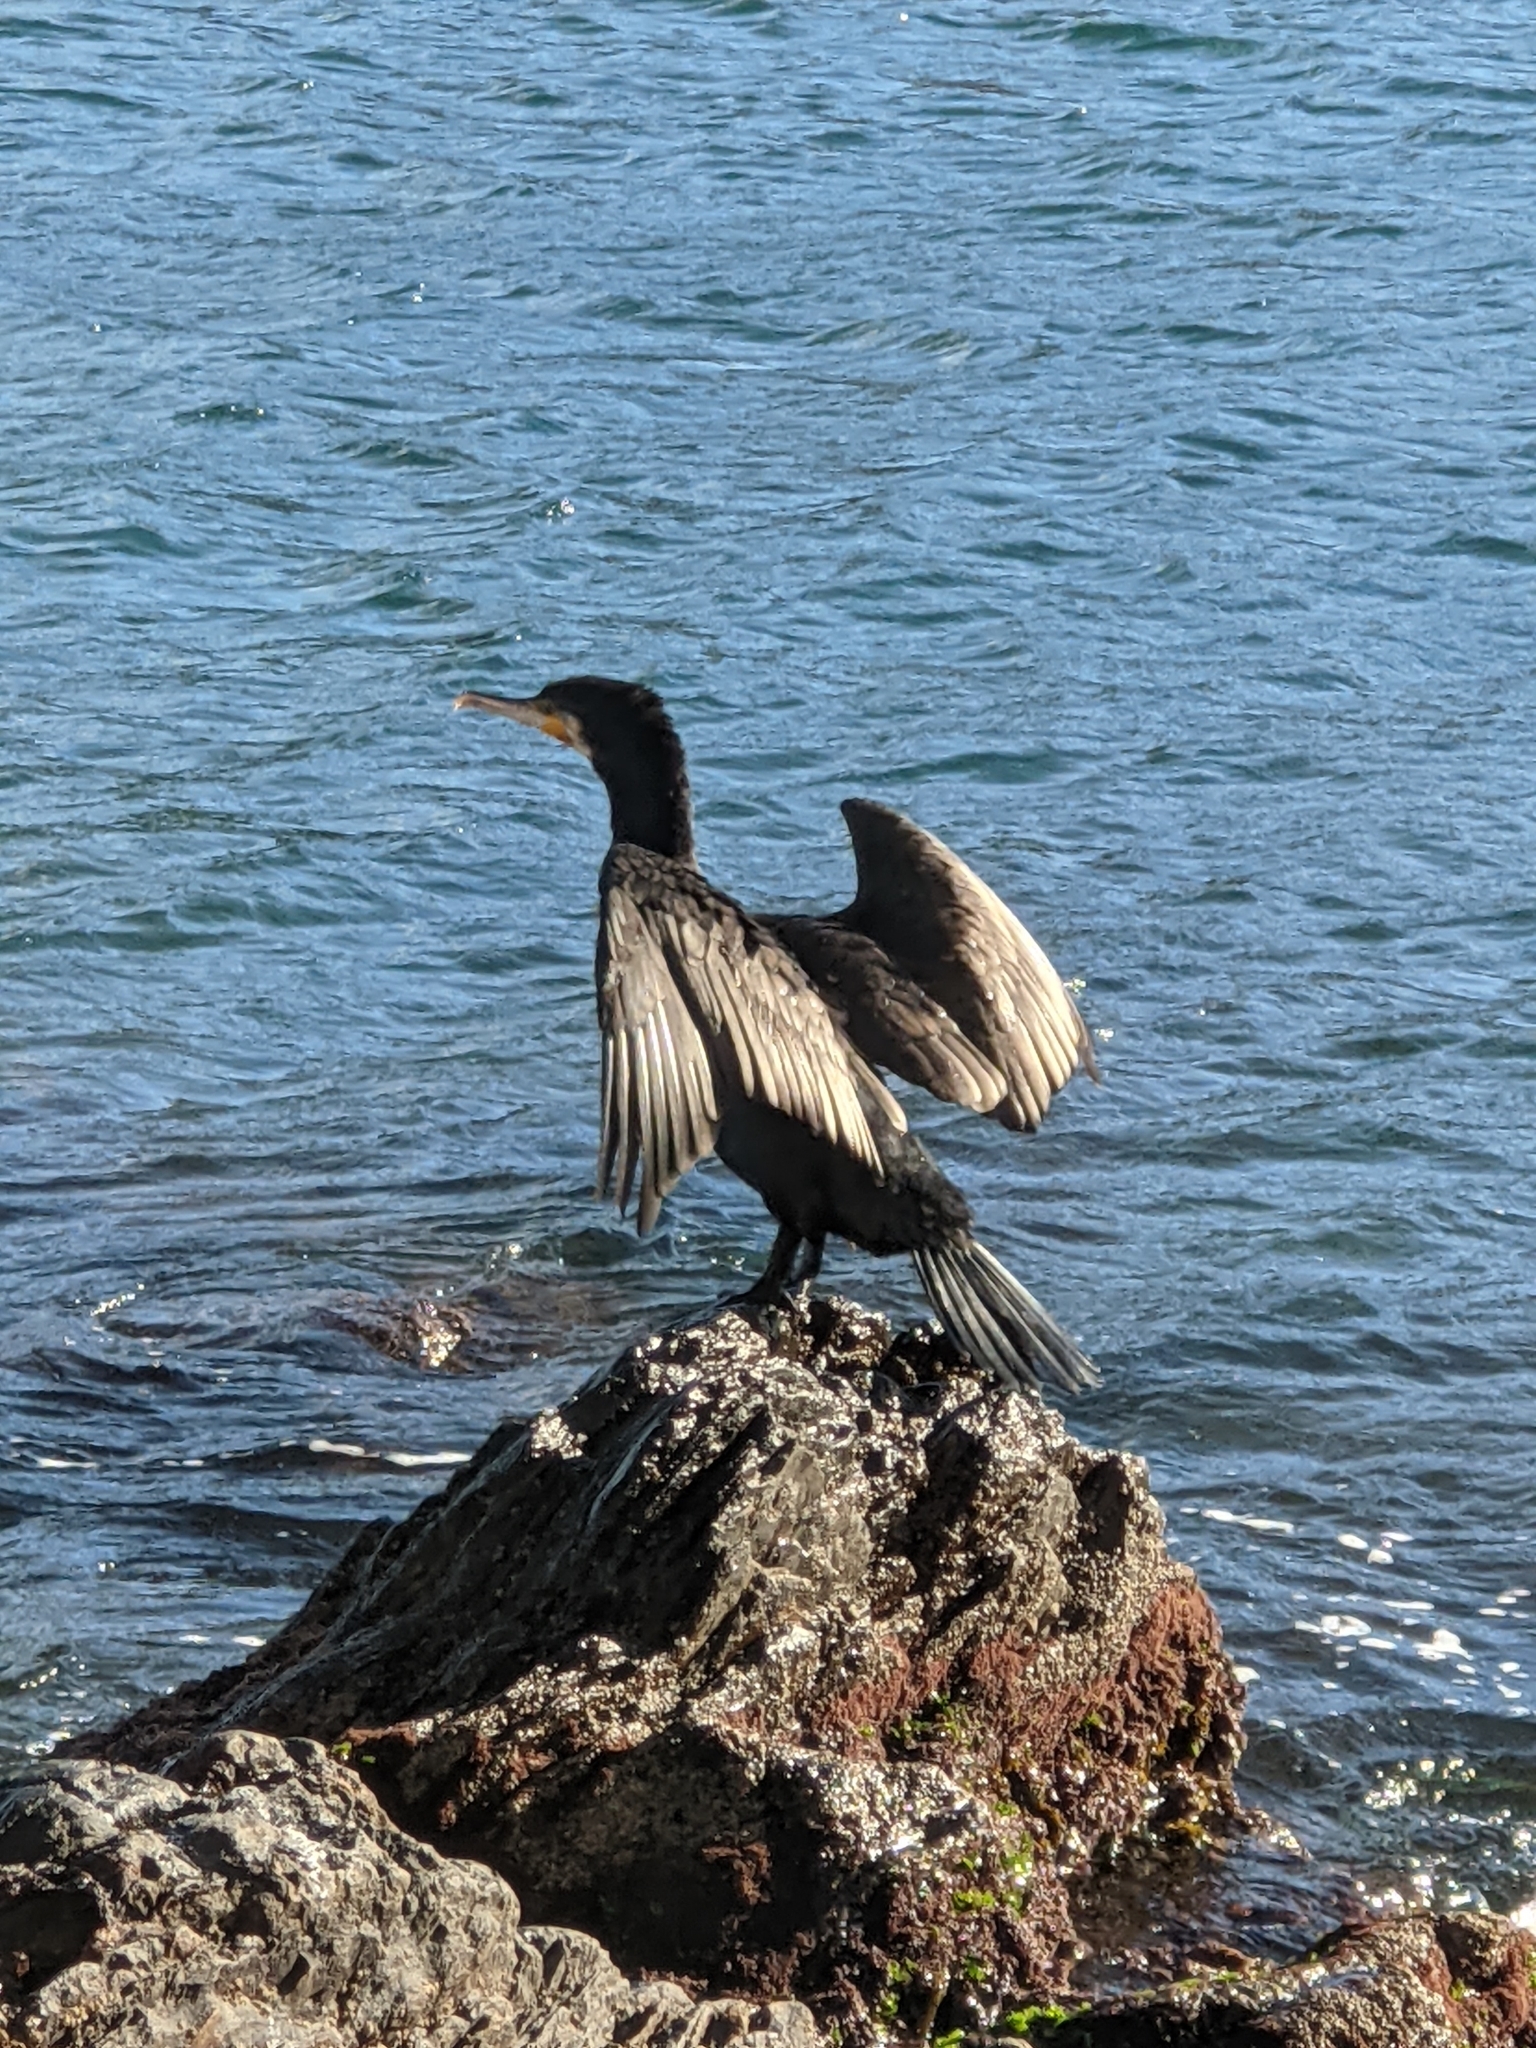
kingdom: Animalia
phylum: Chordata
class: Aves
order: Suliformes
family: Phalacrocoracidae
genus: Phalacrocorax
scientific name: Phalacrocorax carbo
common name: Great cormorant
